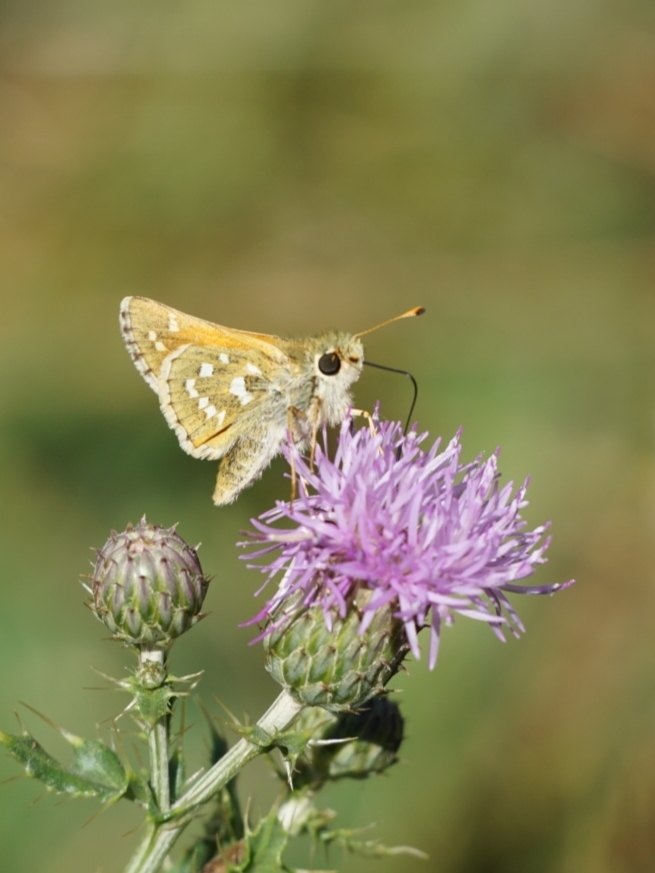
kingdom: Animalia
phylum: Arthropoda
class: Insecta
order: Lepidoptera
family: Hesperiidae
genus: Hesperia
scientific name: Hesperia comma
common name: Common branded skipper
